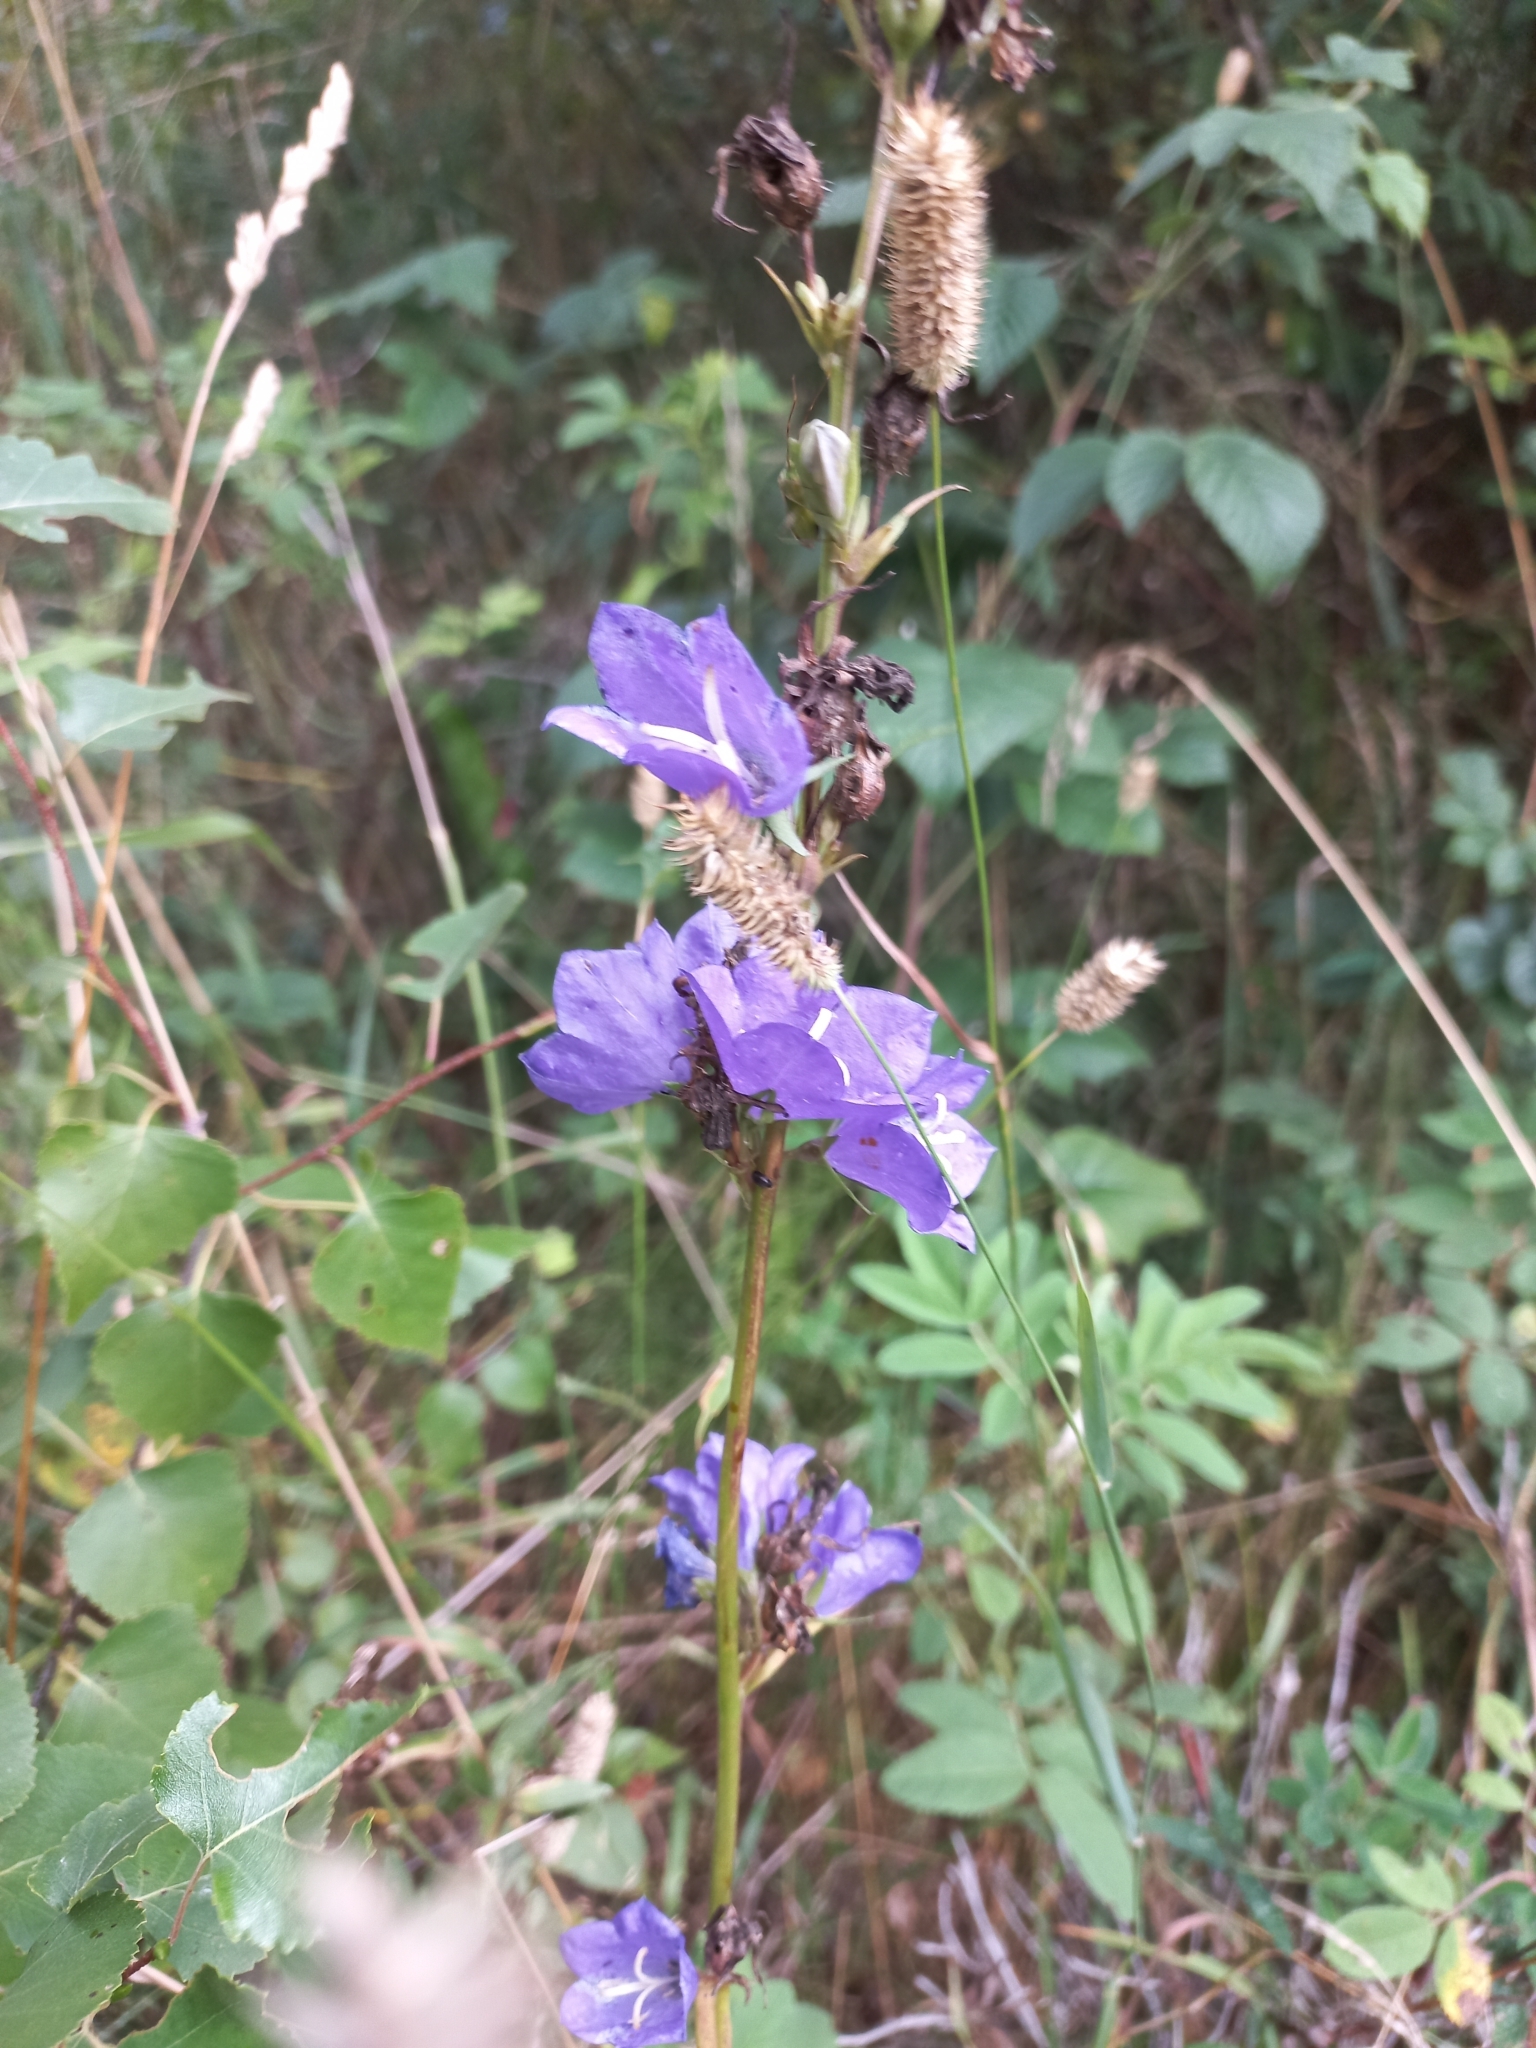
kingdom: Plantae
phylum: Tracheophyta
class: Magnoliopsida
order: Asterales
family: Campanulaceae
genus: Campanula
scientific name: Campanula persicifolia
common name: Peach-leaved bellflower
